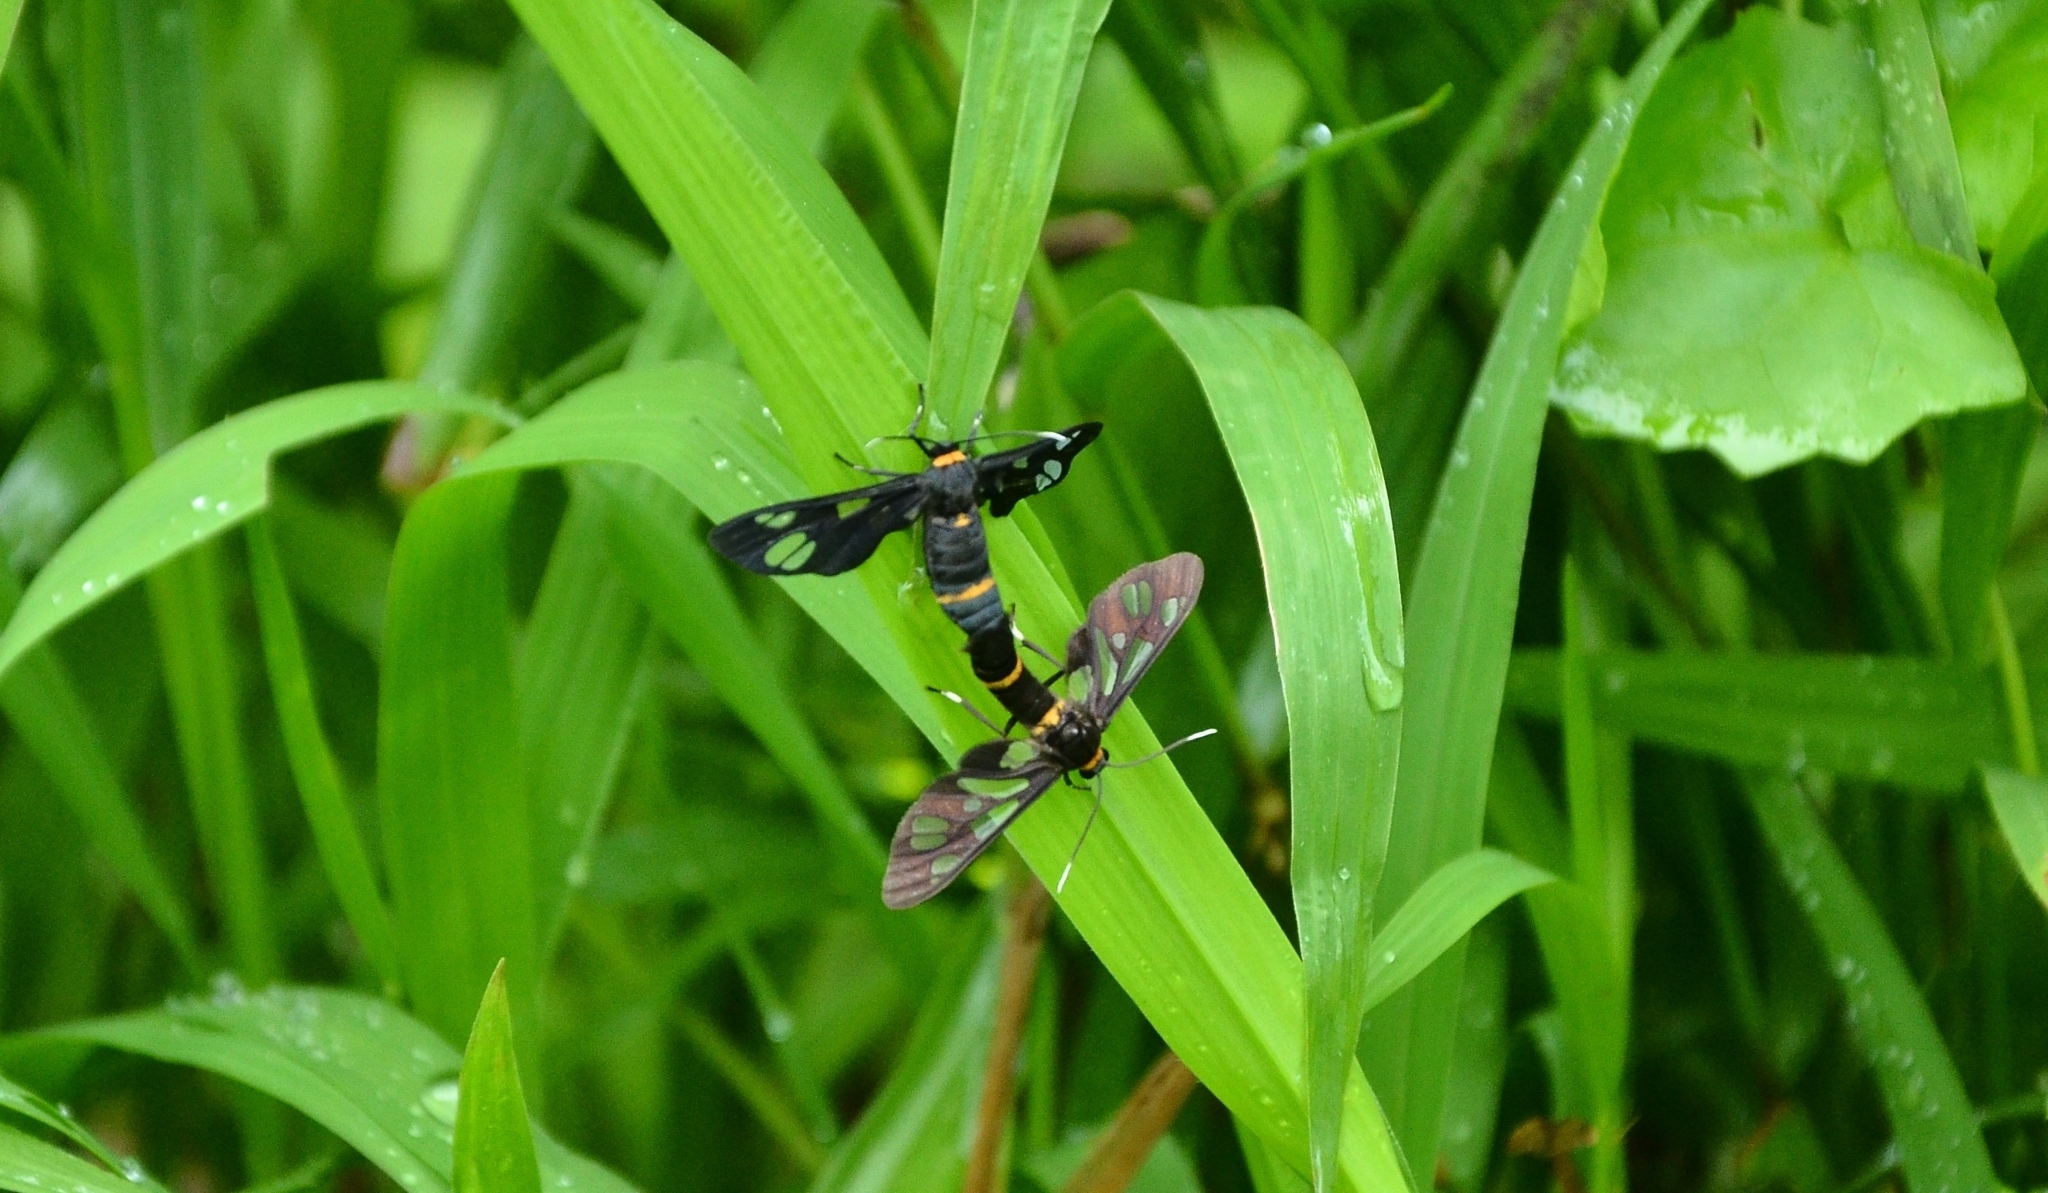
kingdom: Animalia
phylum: Arthropoda
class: Insecta
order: Lepidoptera
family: Erebidae
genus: Syntomoides
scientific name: Syntomoides imaon
